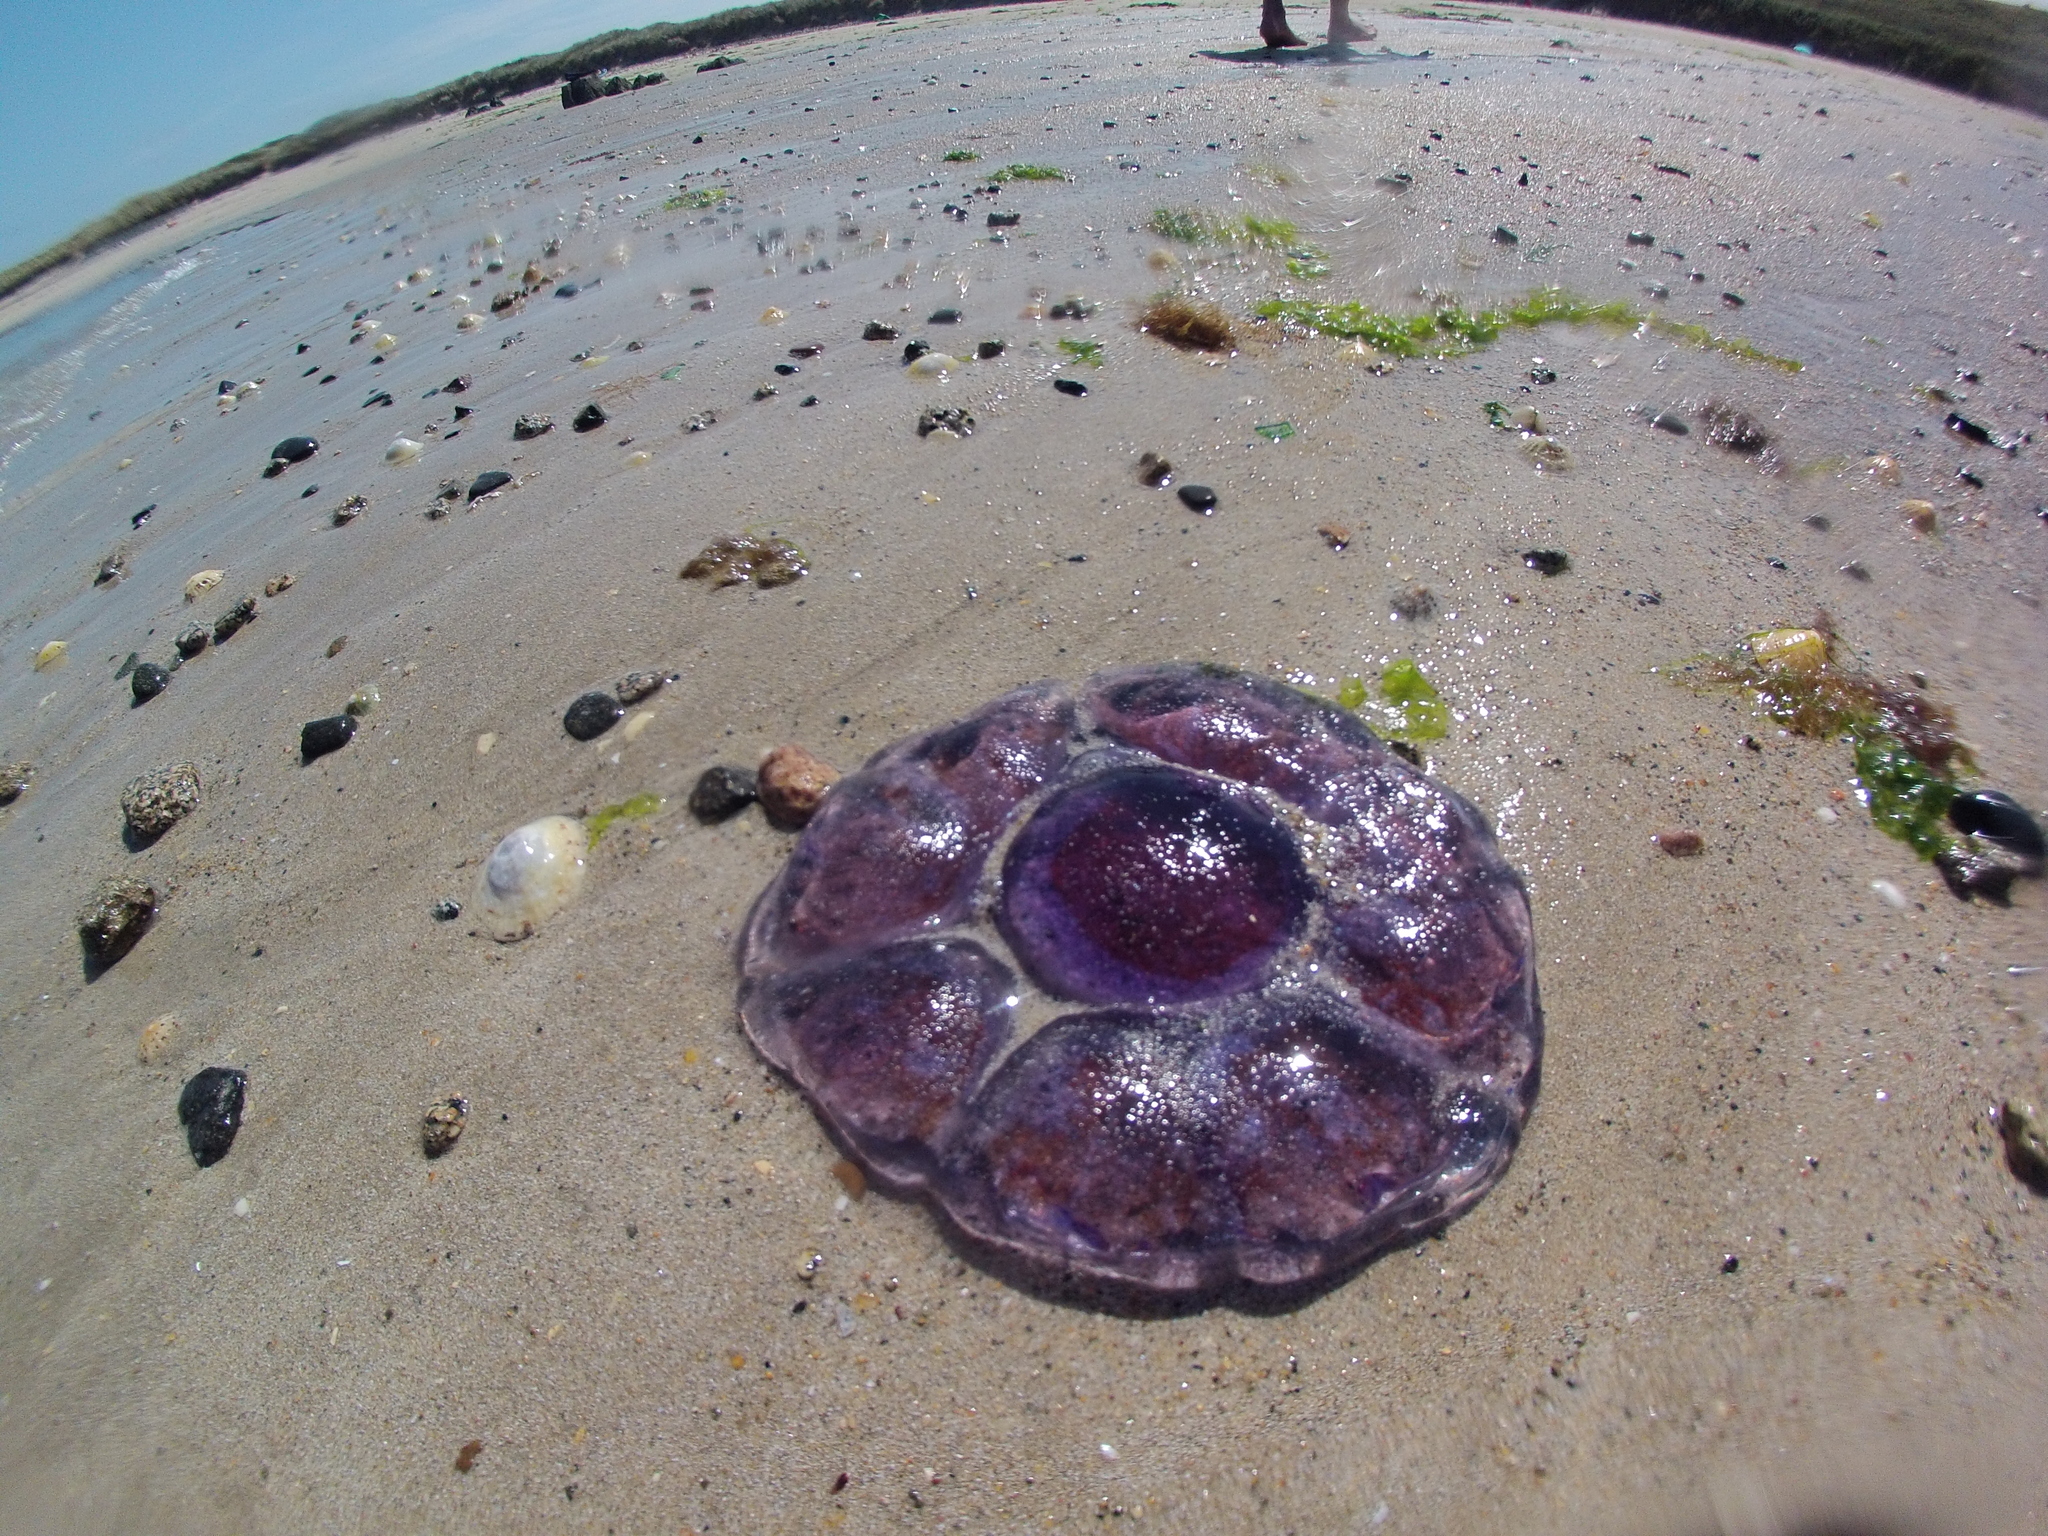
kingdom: Animalia
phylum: Cnidaria
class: Scyphozoa
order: Semaeostomeae
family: Cyaneidae
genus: Cyanea
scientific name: Cyanea lamarckii
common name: Blue jellyfish
